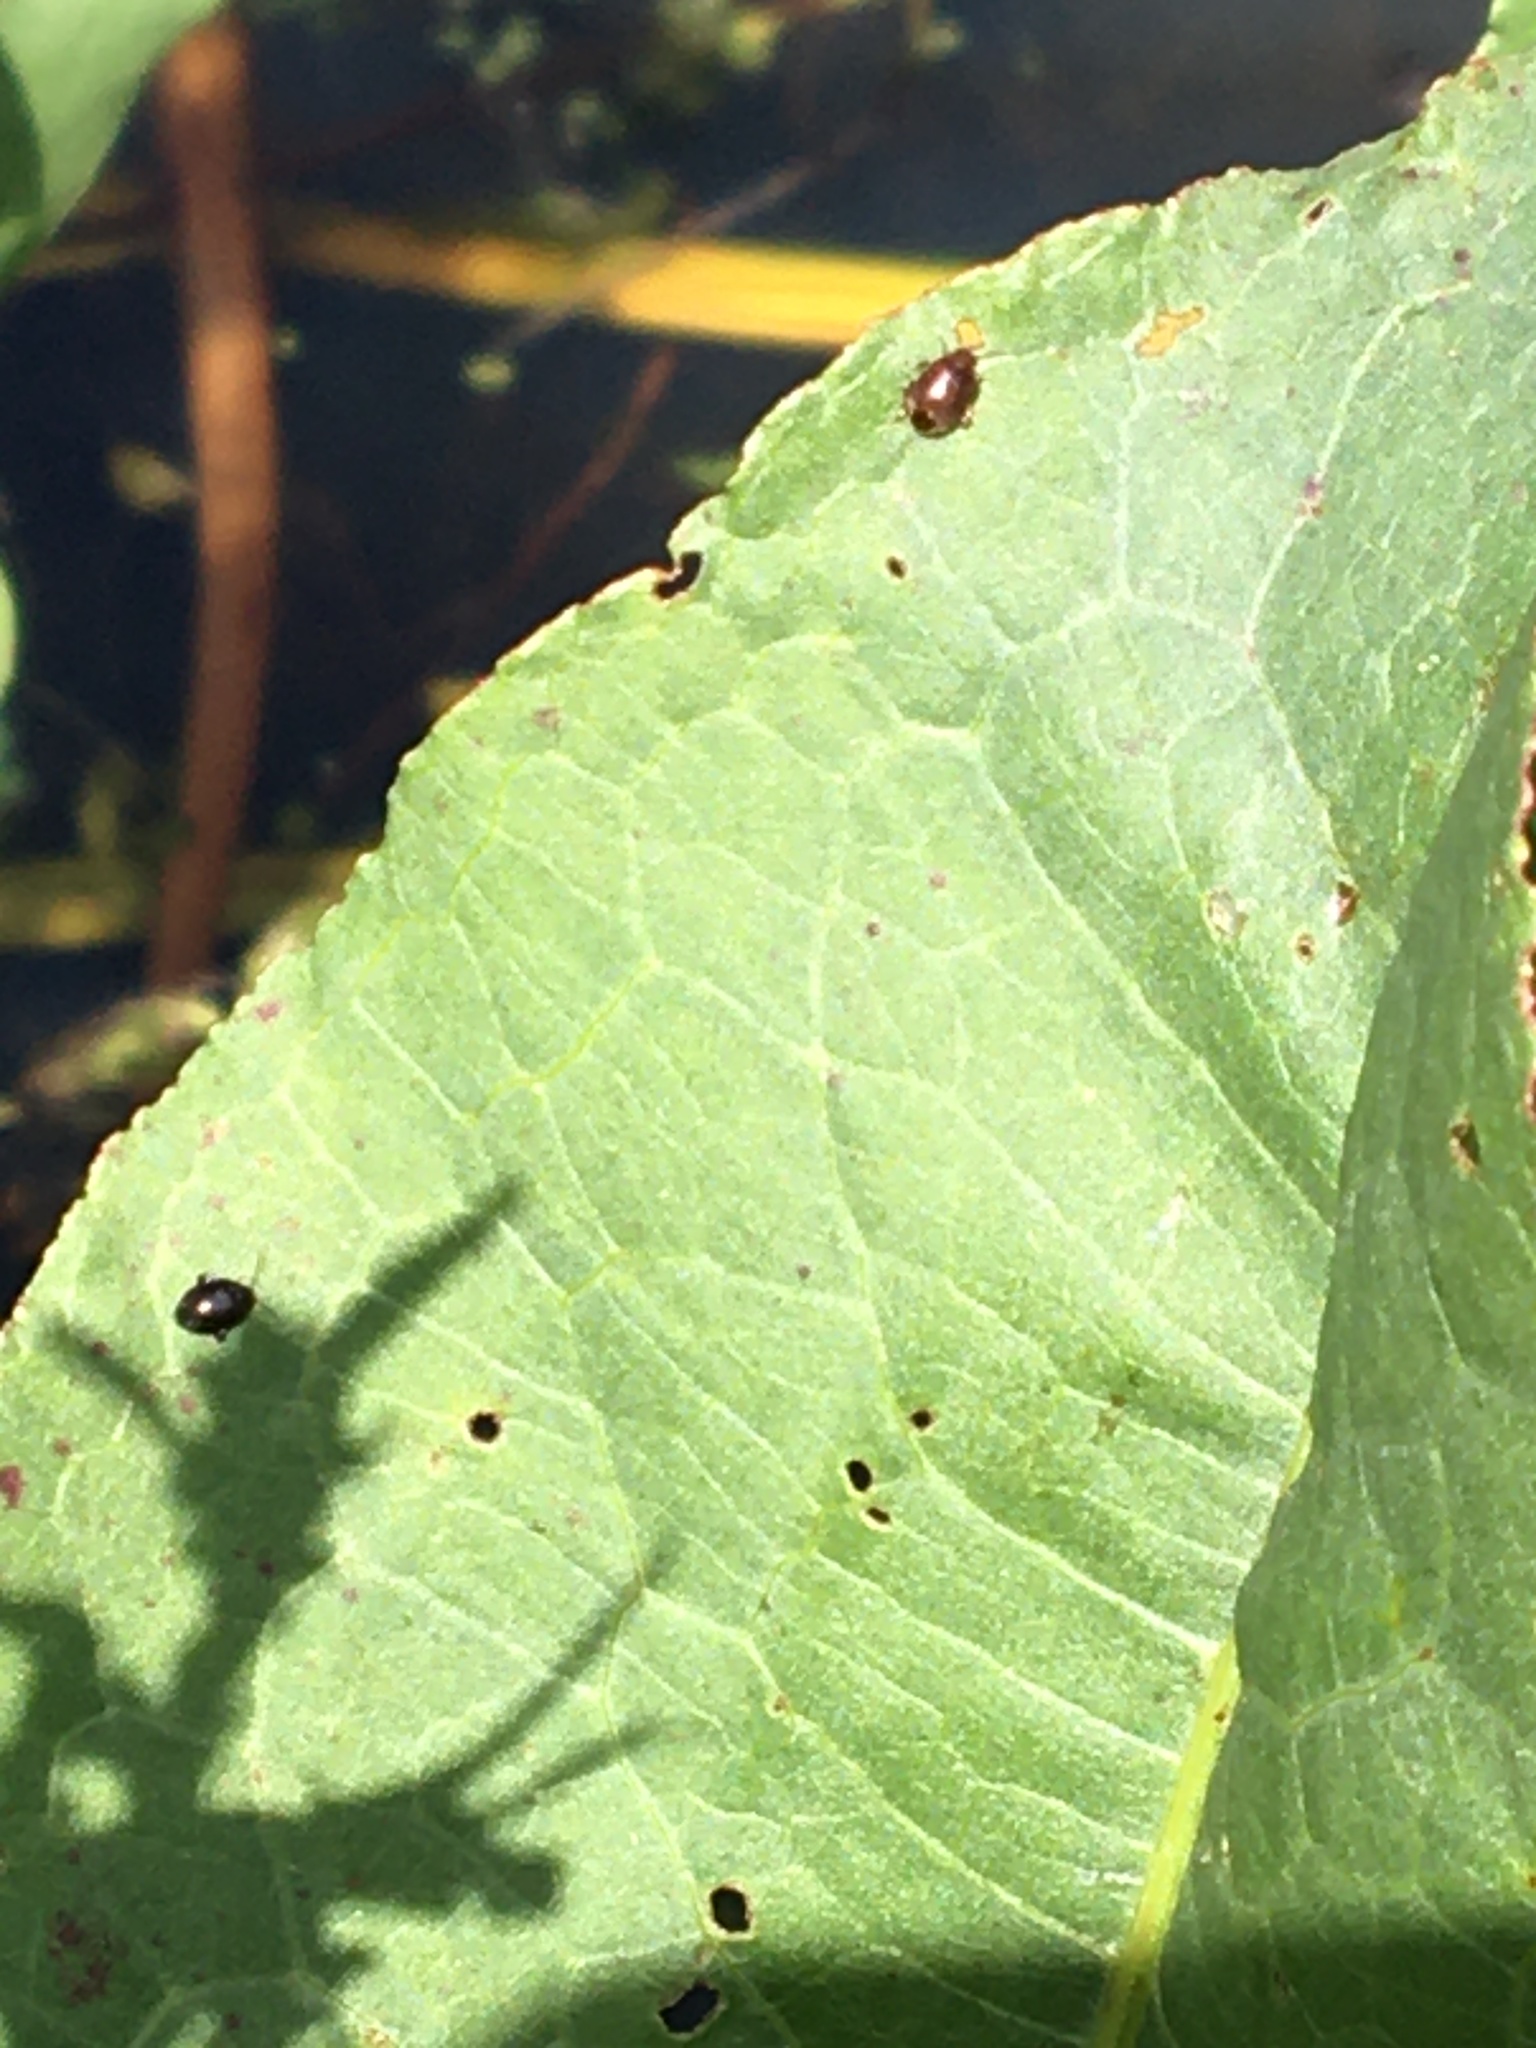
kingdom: Animalia
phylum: Arthropoda
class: Insecta
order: Coleoptera
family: Scirtidae
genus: Scirtes
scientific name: Scirtes hemisphaericus
